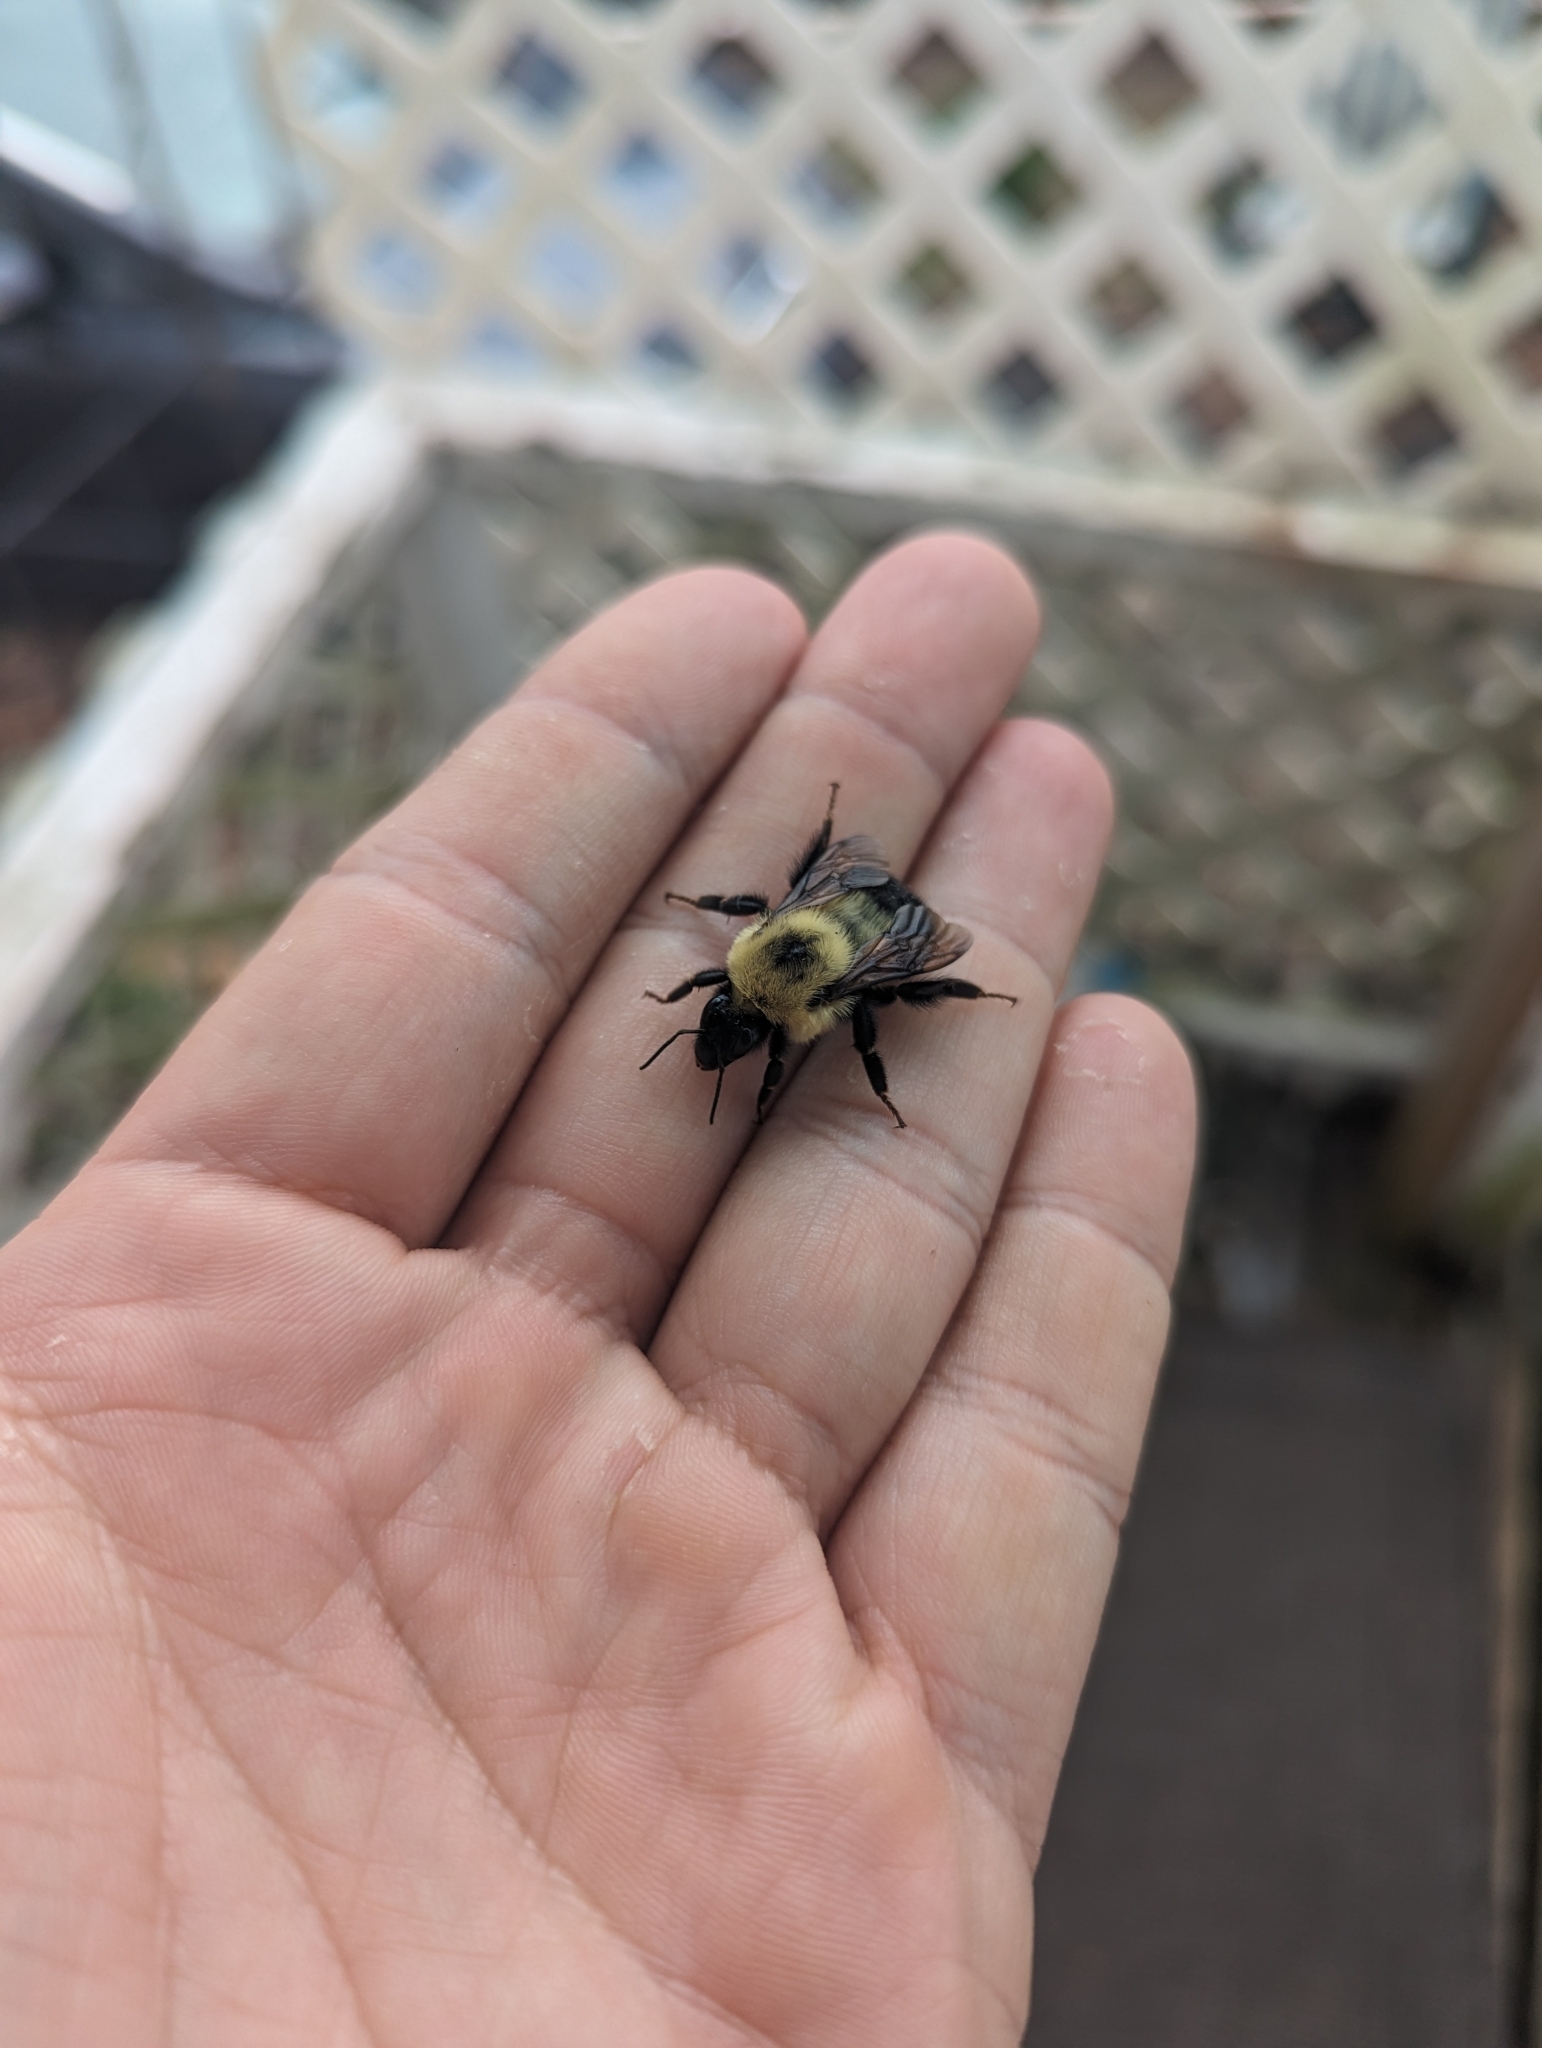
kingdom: Animalia
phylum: Arthropoda
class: Insecta
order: Hymenoptera
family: Apidae
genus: Bombus
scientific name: Bombus bimaculatus
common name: Two-spotted bumble bee
